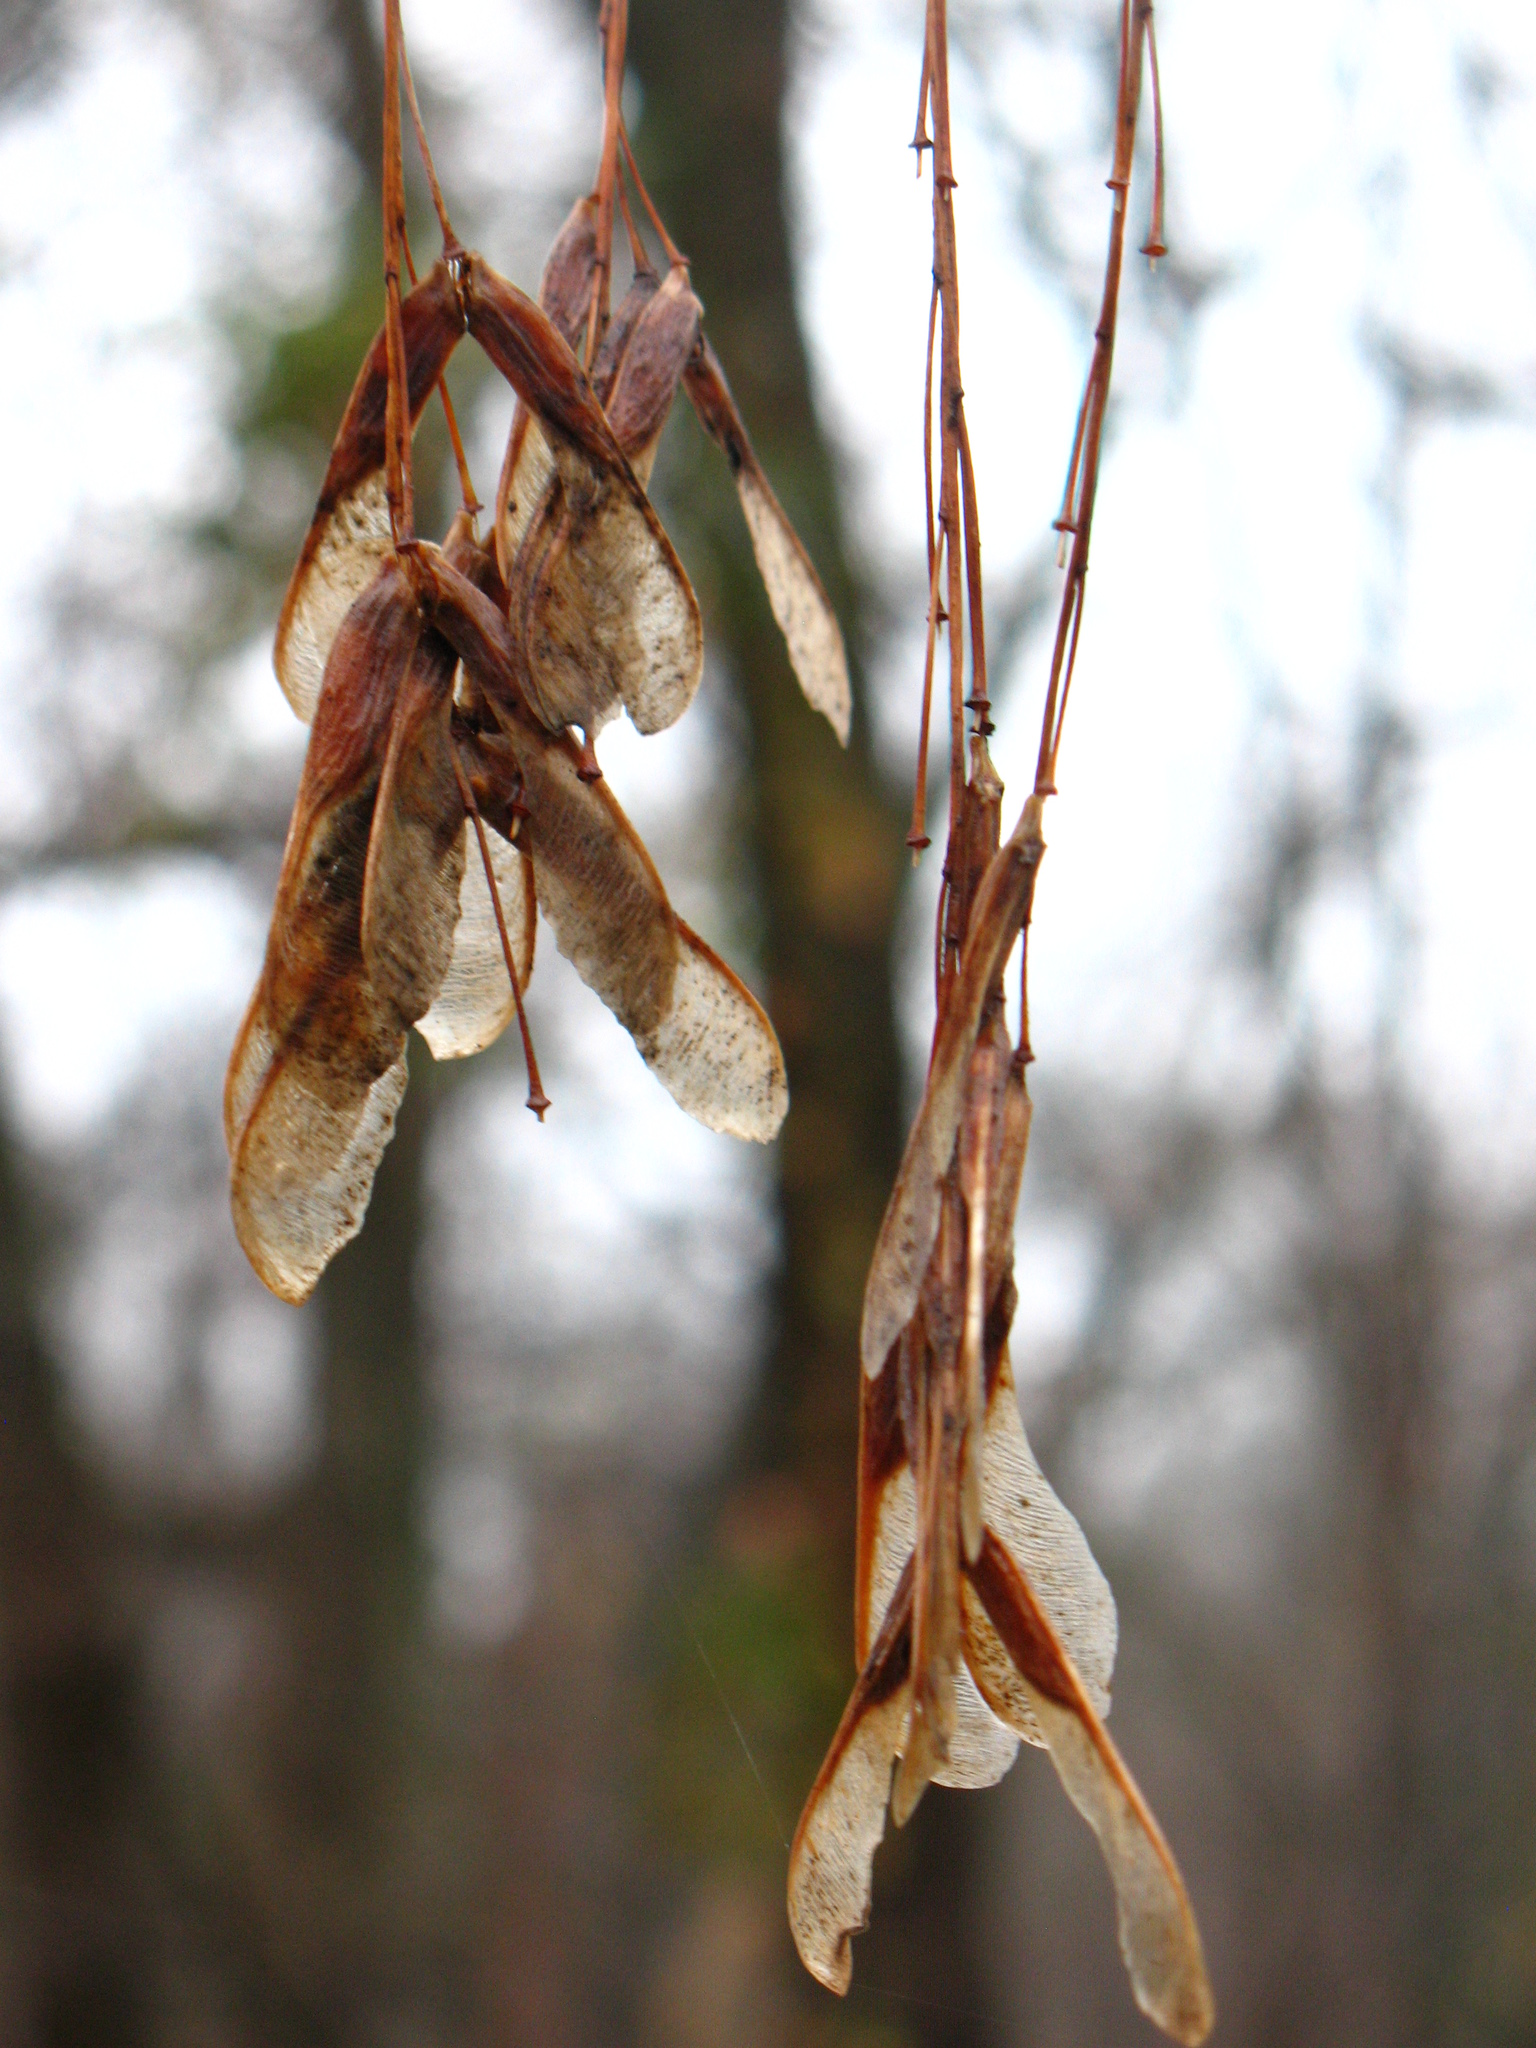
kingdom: Plantae
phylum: Tracheophyta
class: Magnoliopsida
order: Sapindales
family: Sapindaceae
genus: Acer
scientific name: Acer negundo
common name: Ashleaf maple
